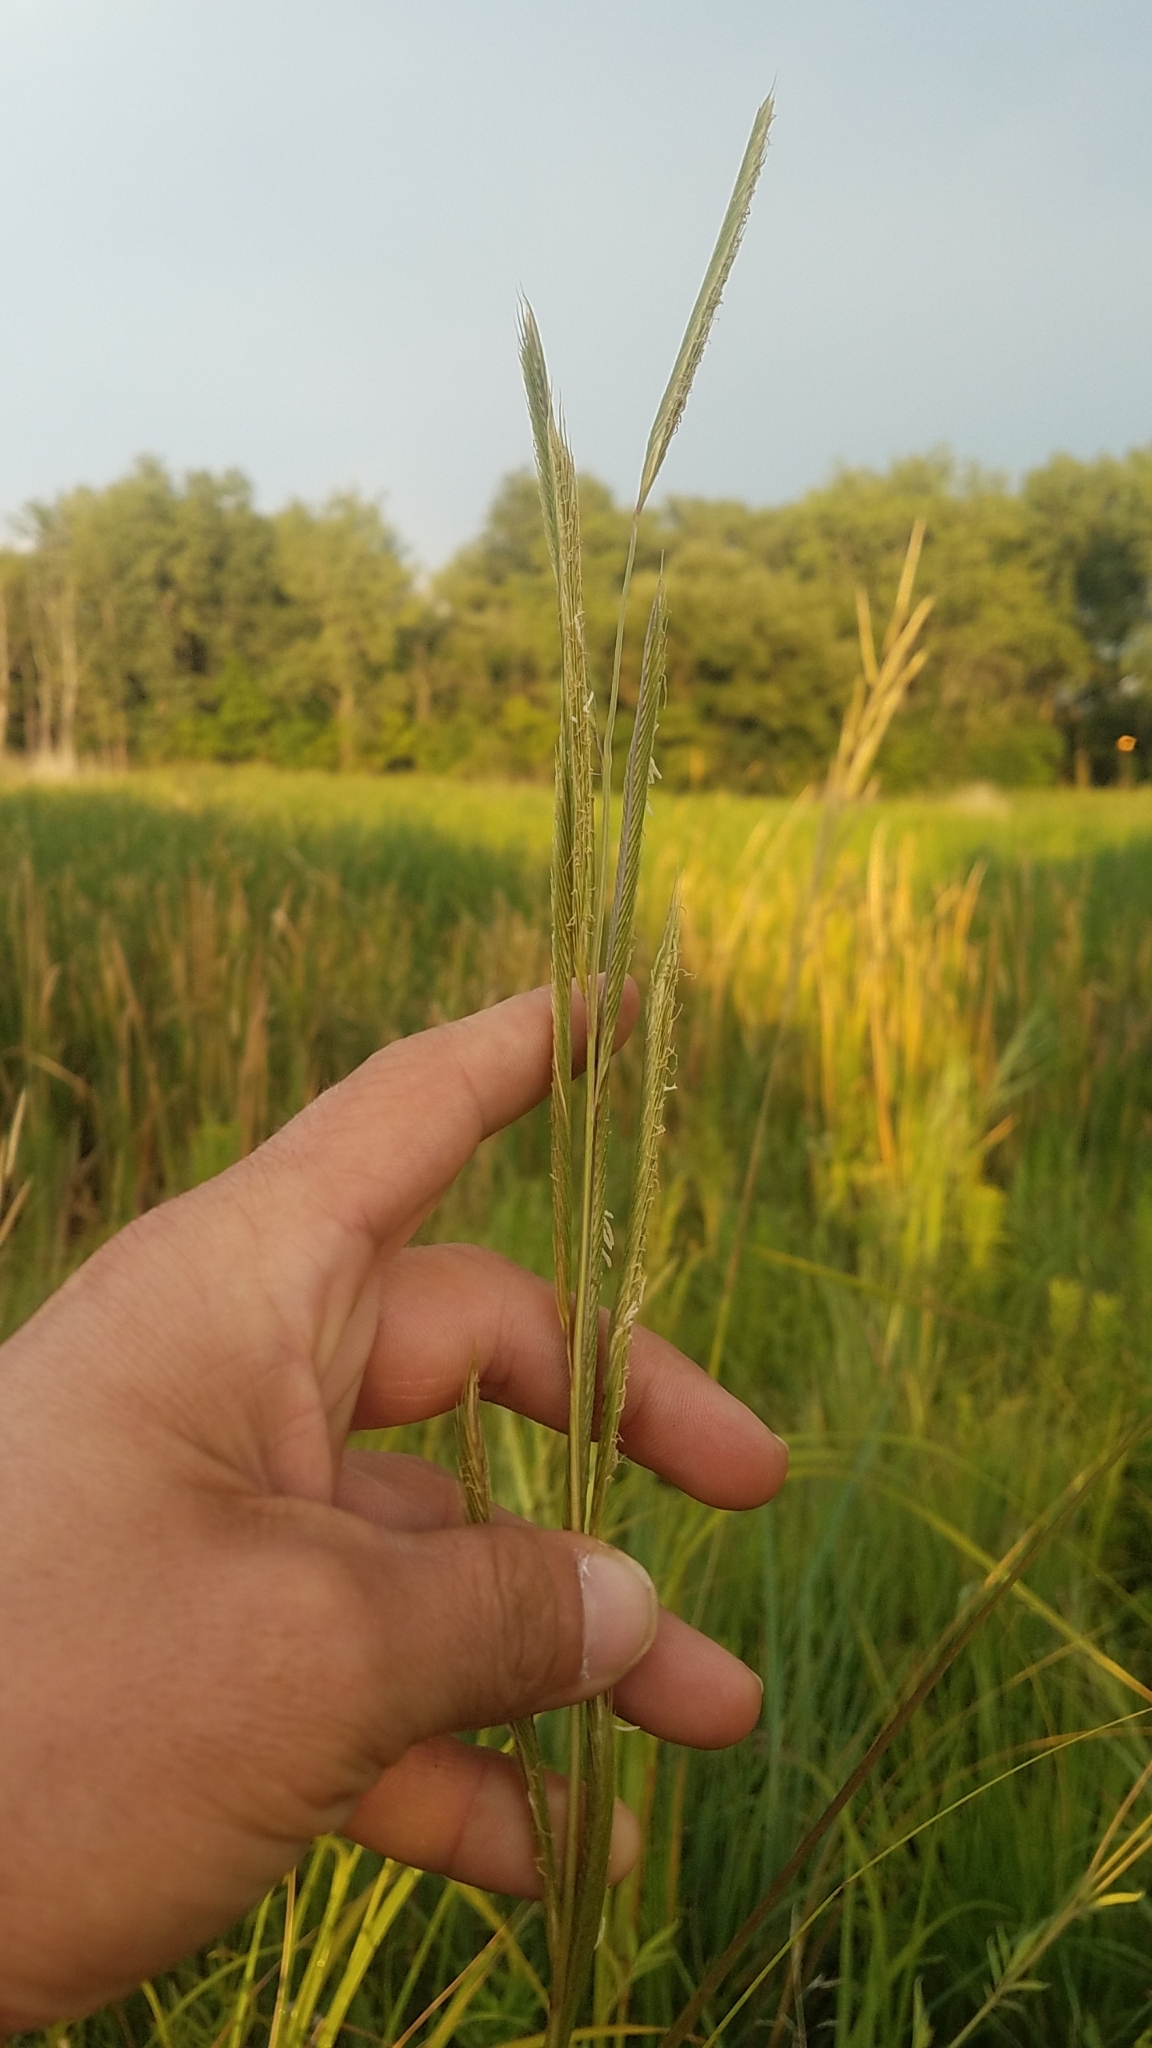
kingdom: Plantae
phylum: Tracheophyta
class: Liliopsida
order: Poales
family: Poaceae
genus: Sporobolus
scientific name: Sporobolus michauxianus
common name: Freshwater cordgrass
